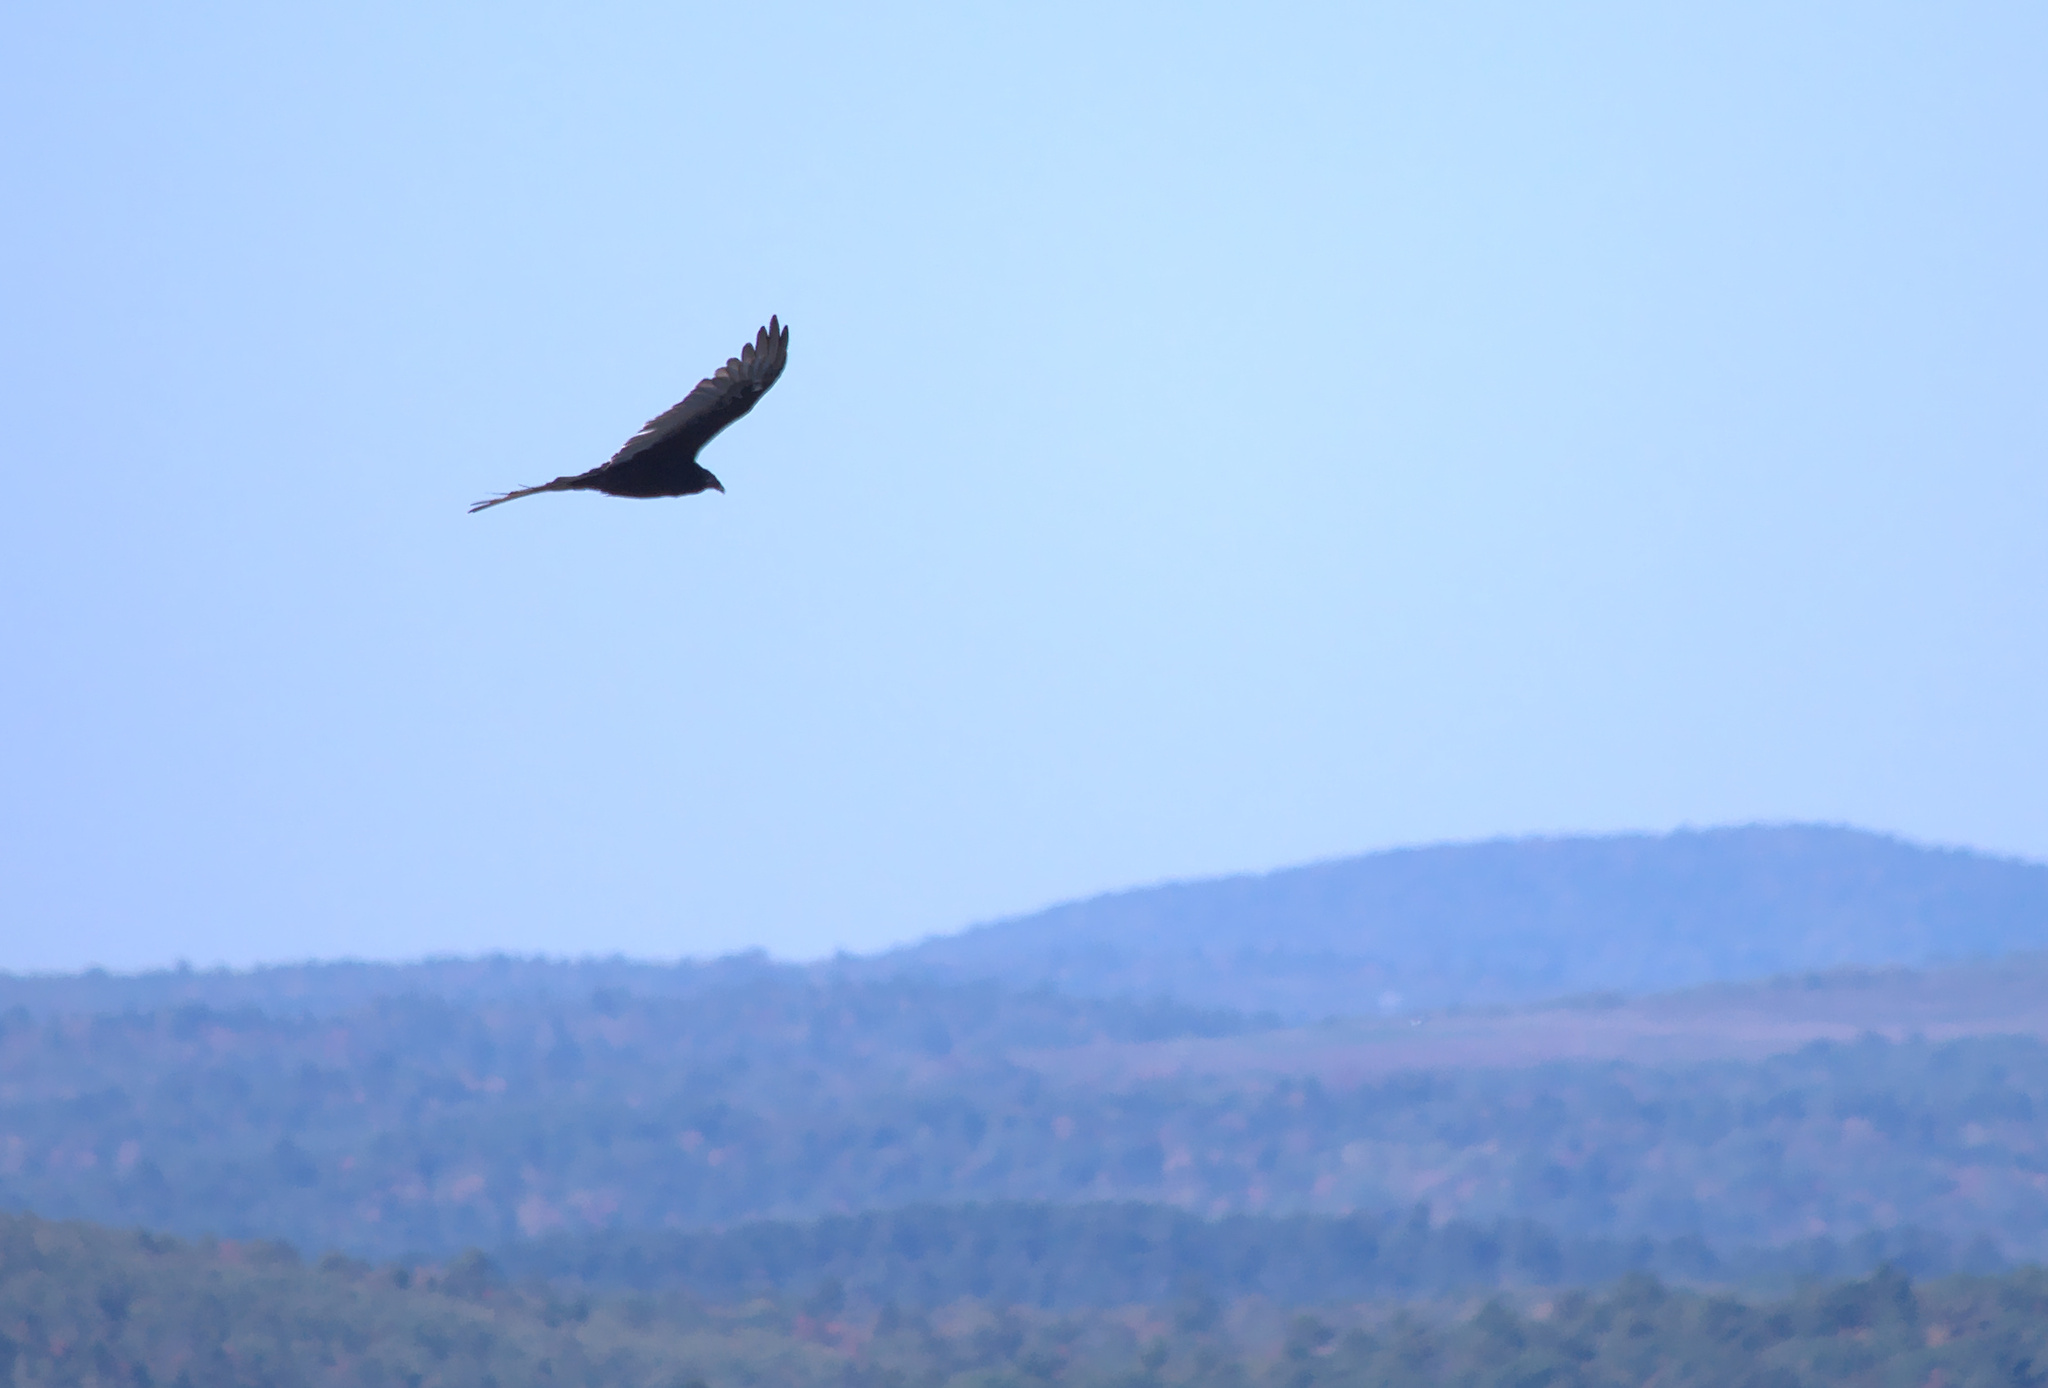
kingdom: Animalia
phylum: Chordata
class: Aves
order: Accipitriformes
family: Cathartidae
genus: Cathartes
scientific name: Cathartes aura
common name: Turkey vulture
